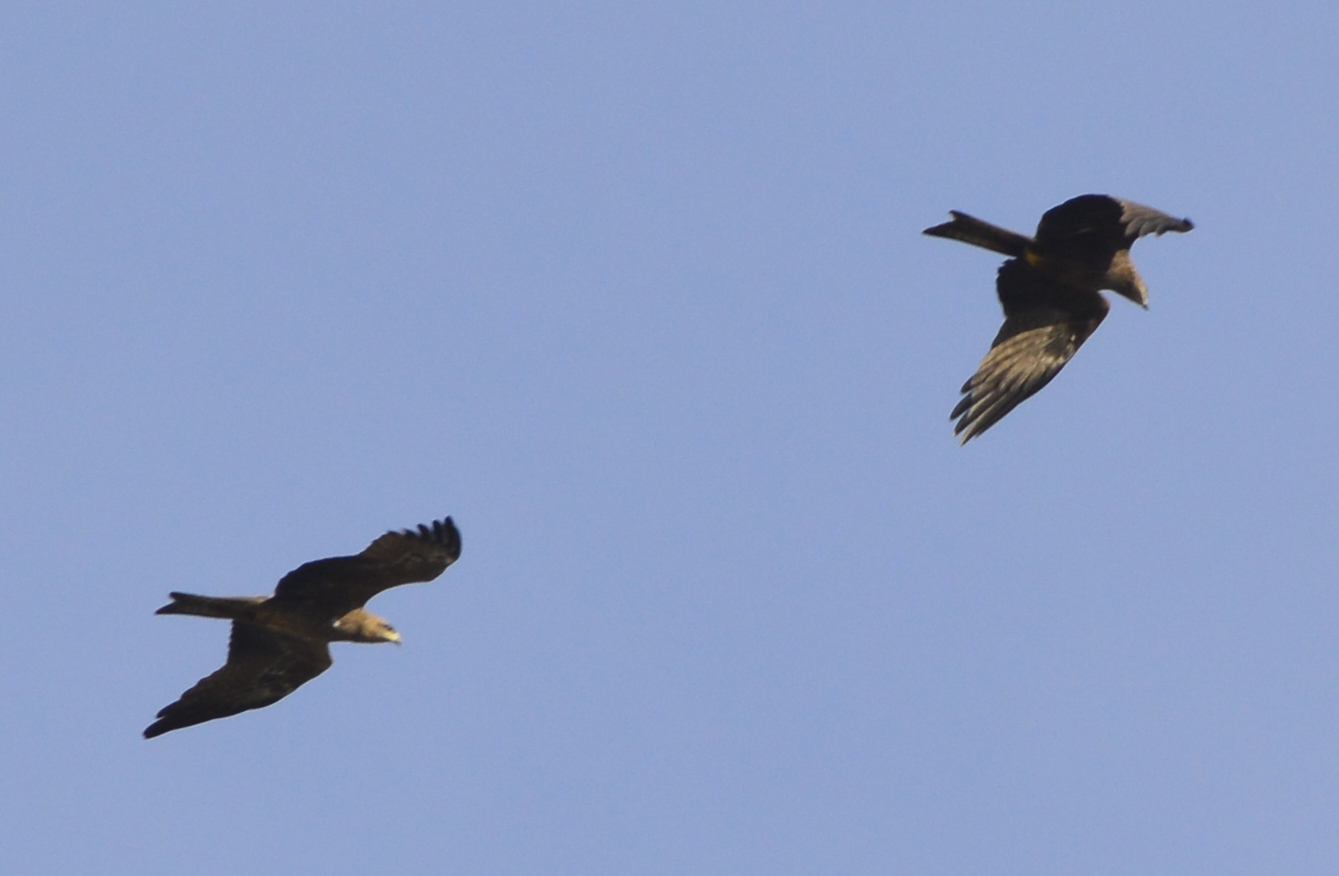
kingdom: Animalia
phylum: Chordata
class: Aves
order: Accipitriformes
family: Accipitridae
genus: Milvus
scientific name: Milvus migrans
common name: Black kite
